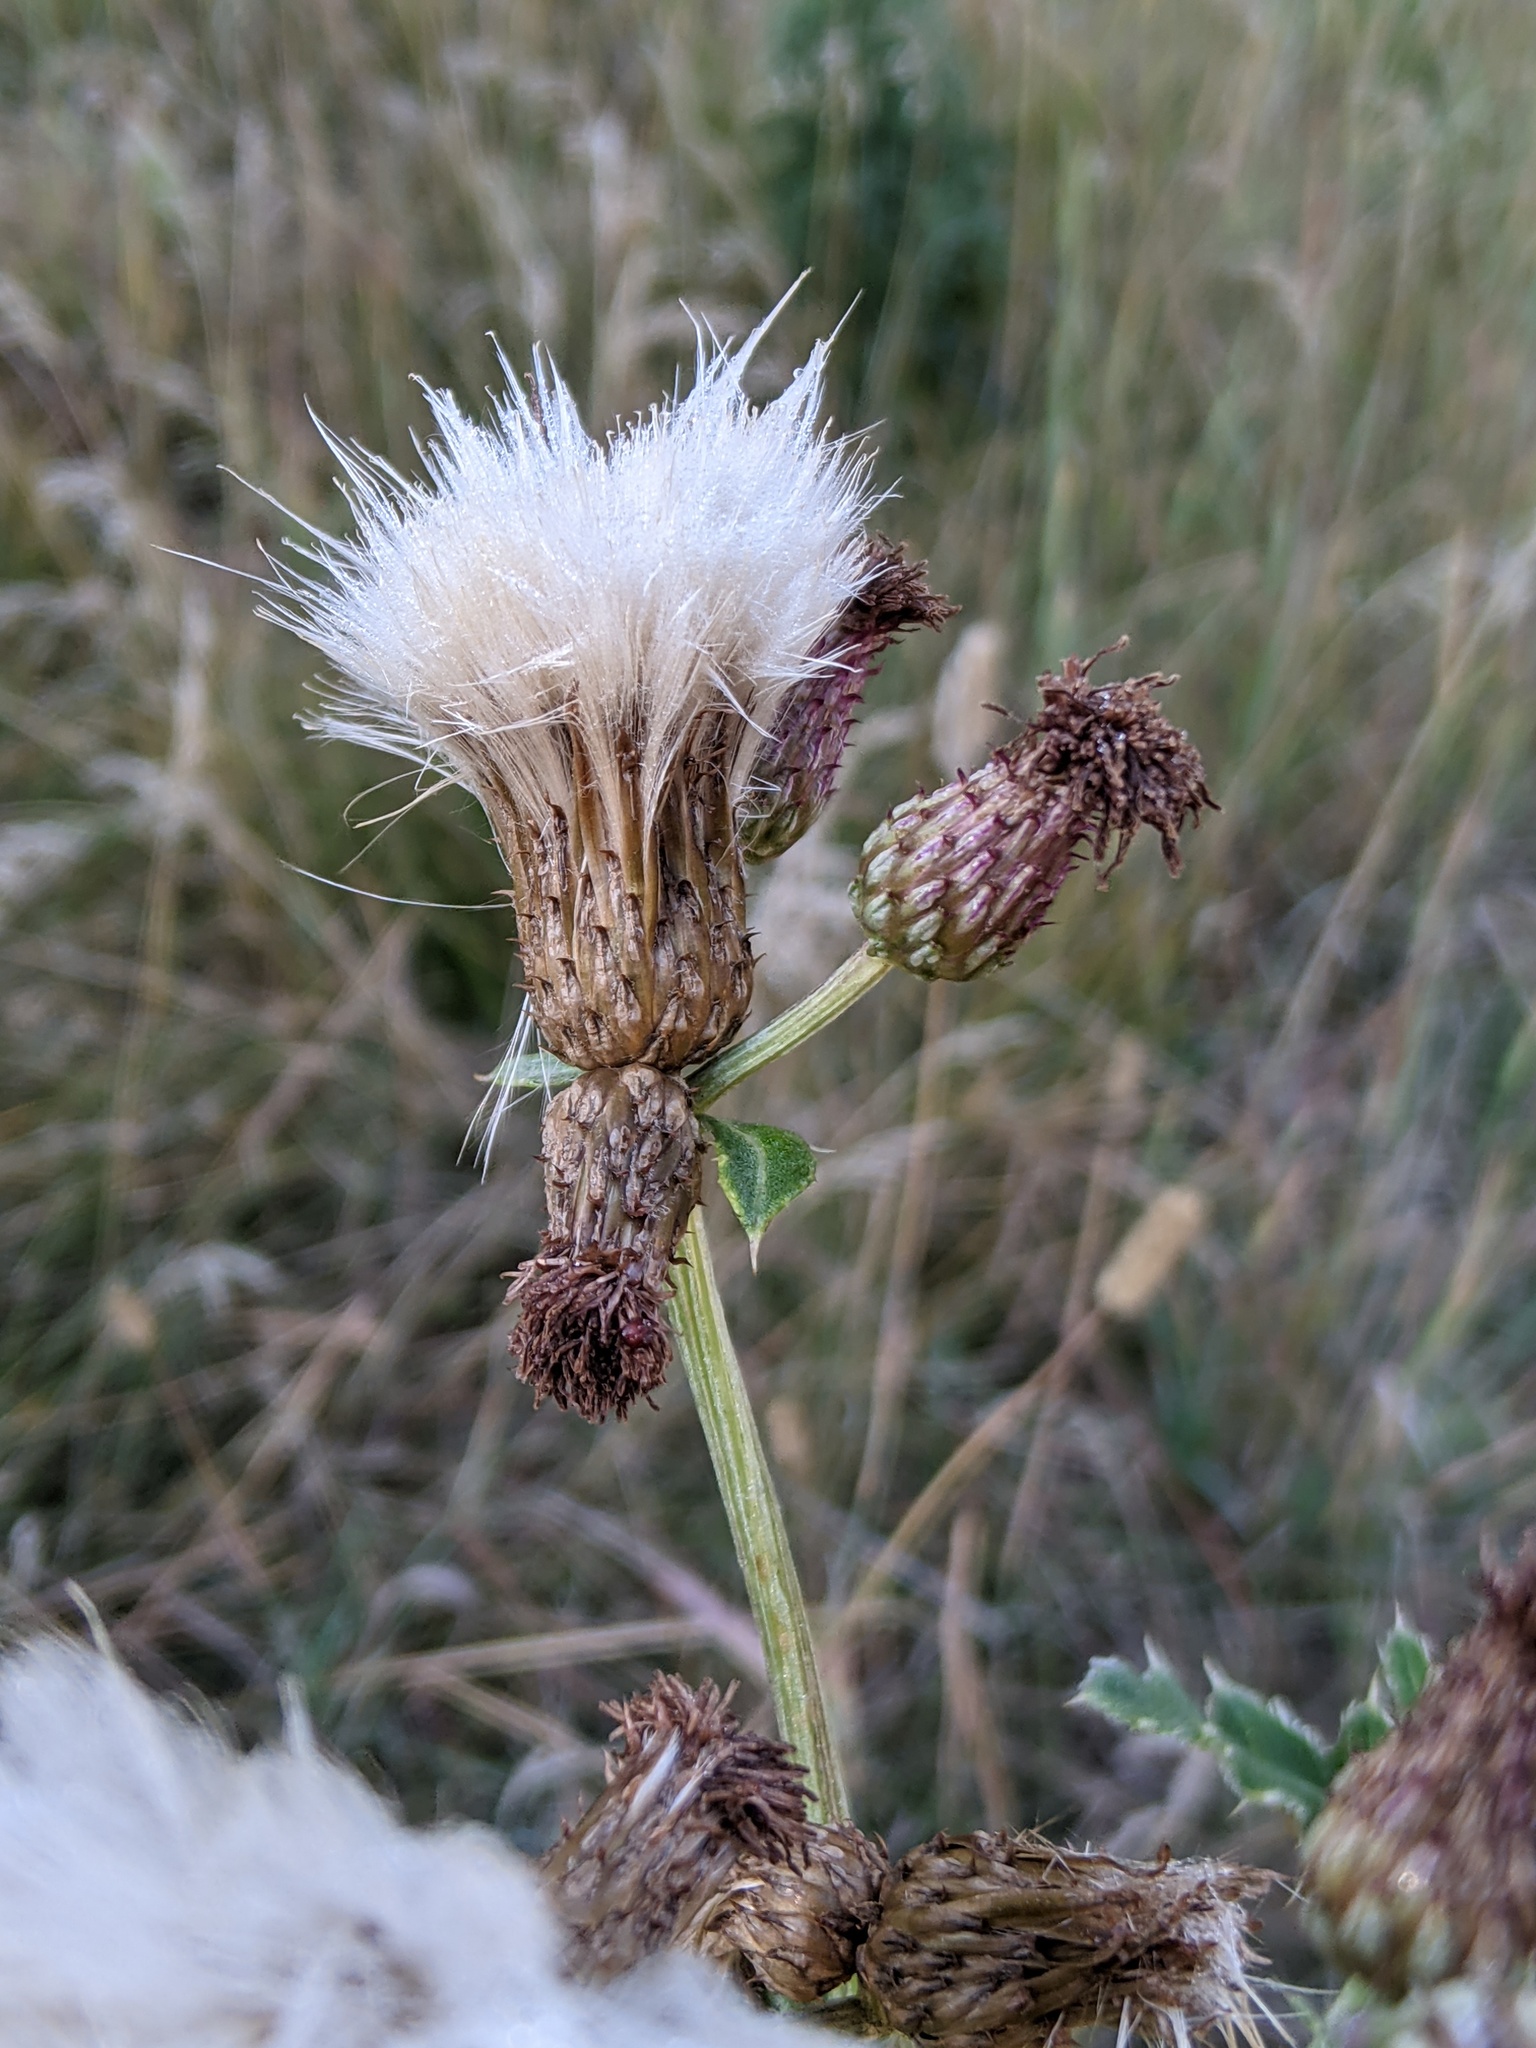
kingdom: Plantae
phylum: Tracheophyta
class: Magnoliopsida
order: Asterales
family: Asteraceae
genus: Cirsium
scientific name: Cirsium arvense
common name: Creeping thistle
